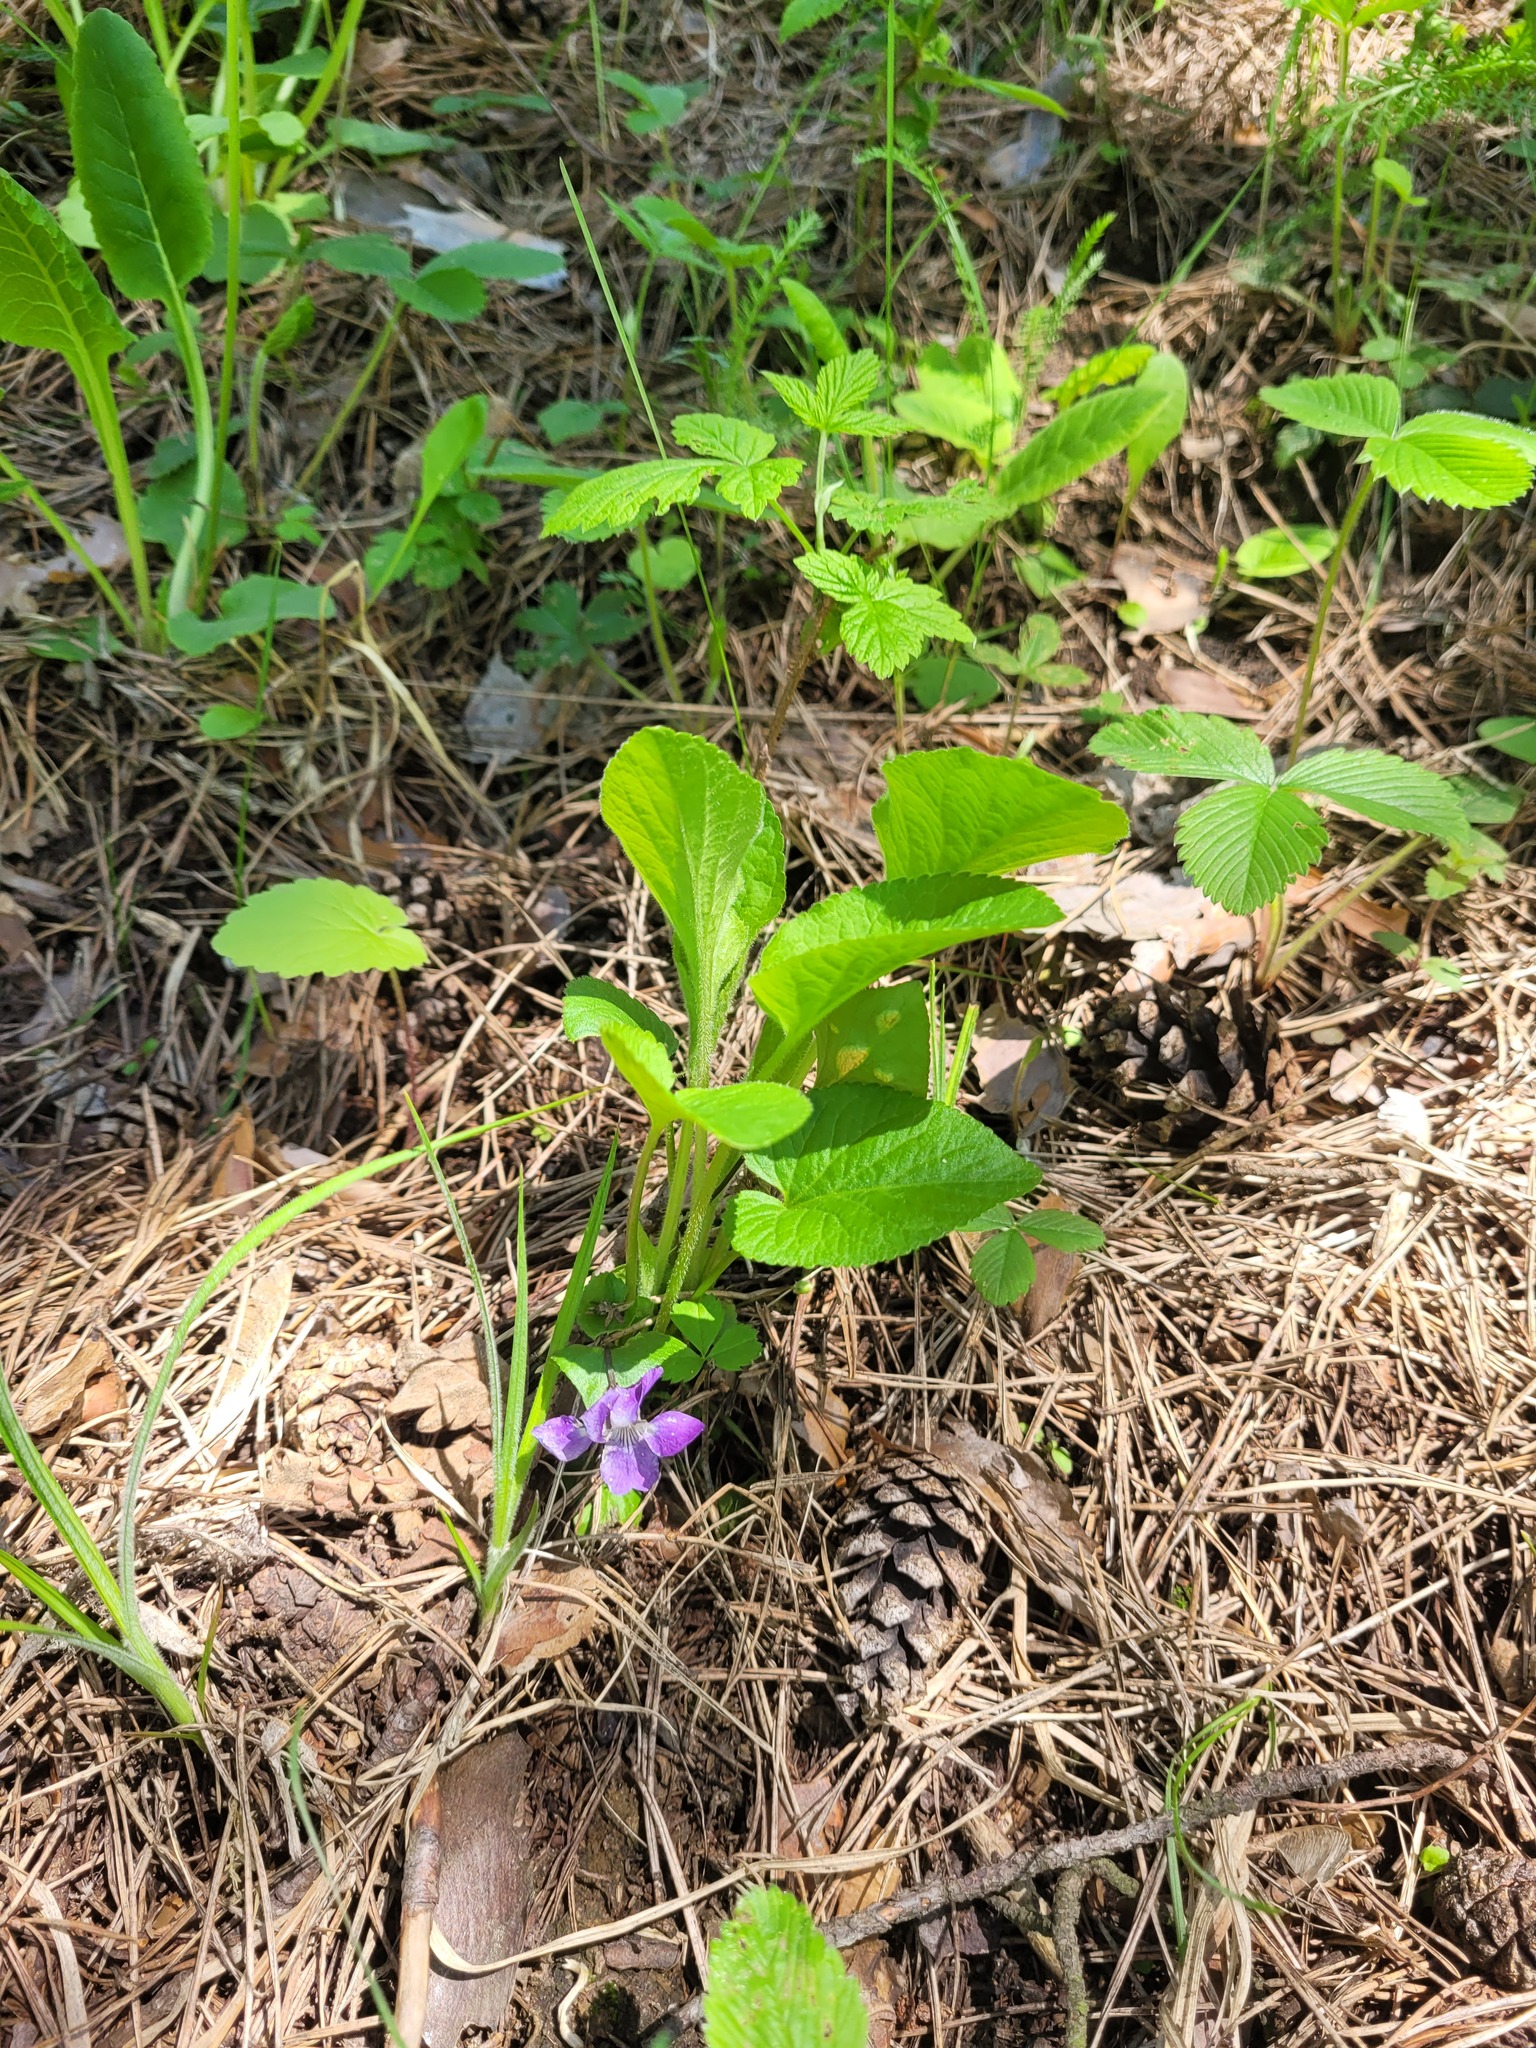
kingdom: Plantae
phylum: Tracheophyta
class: Magnoliopsida
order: Malpighiales
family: Violaceae
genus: Viola
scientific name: Viola hirta
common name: Hairy violet
